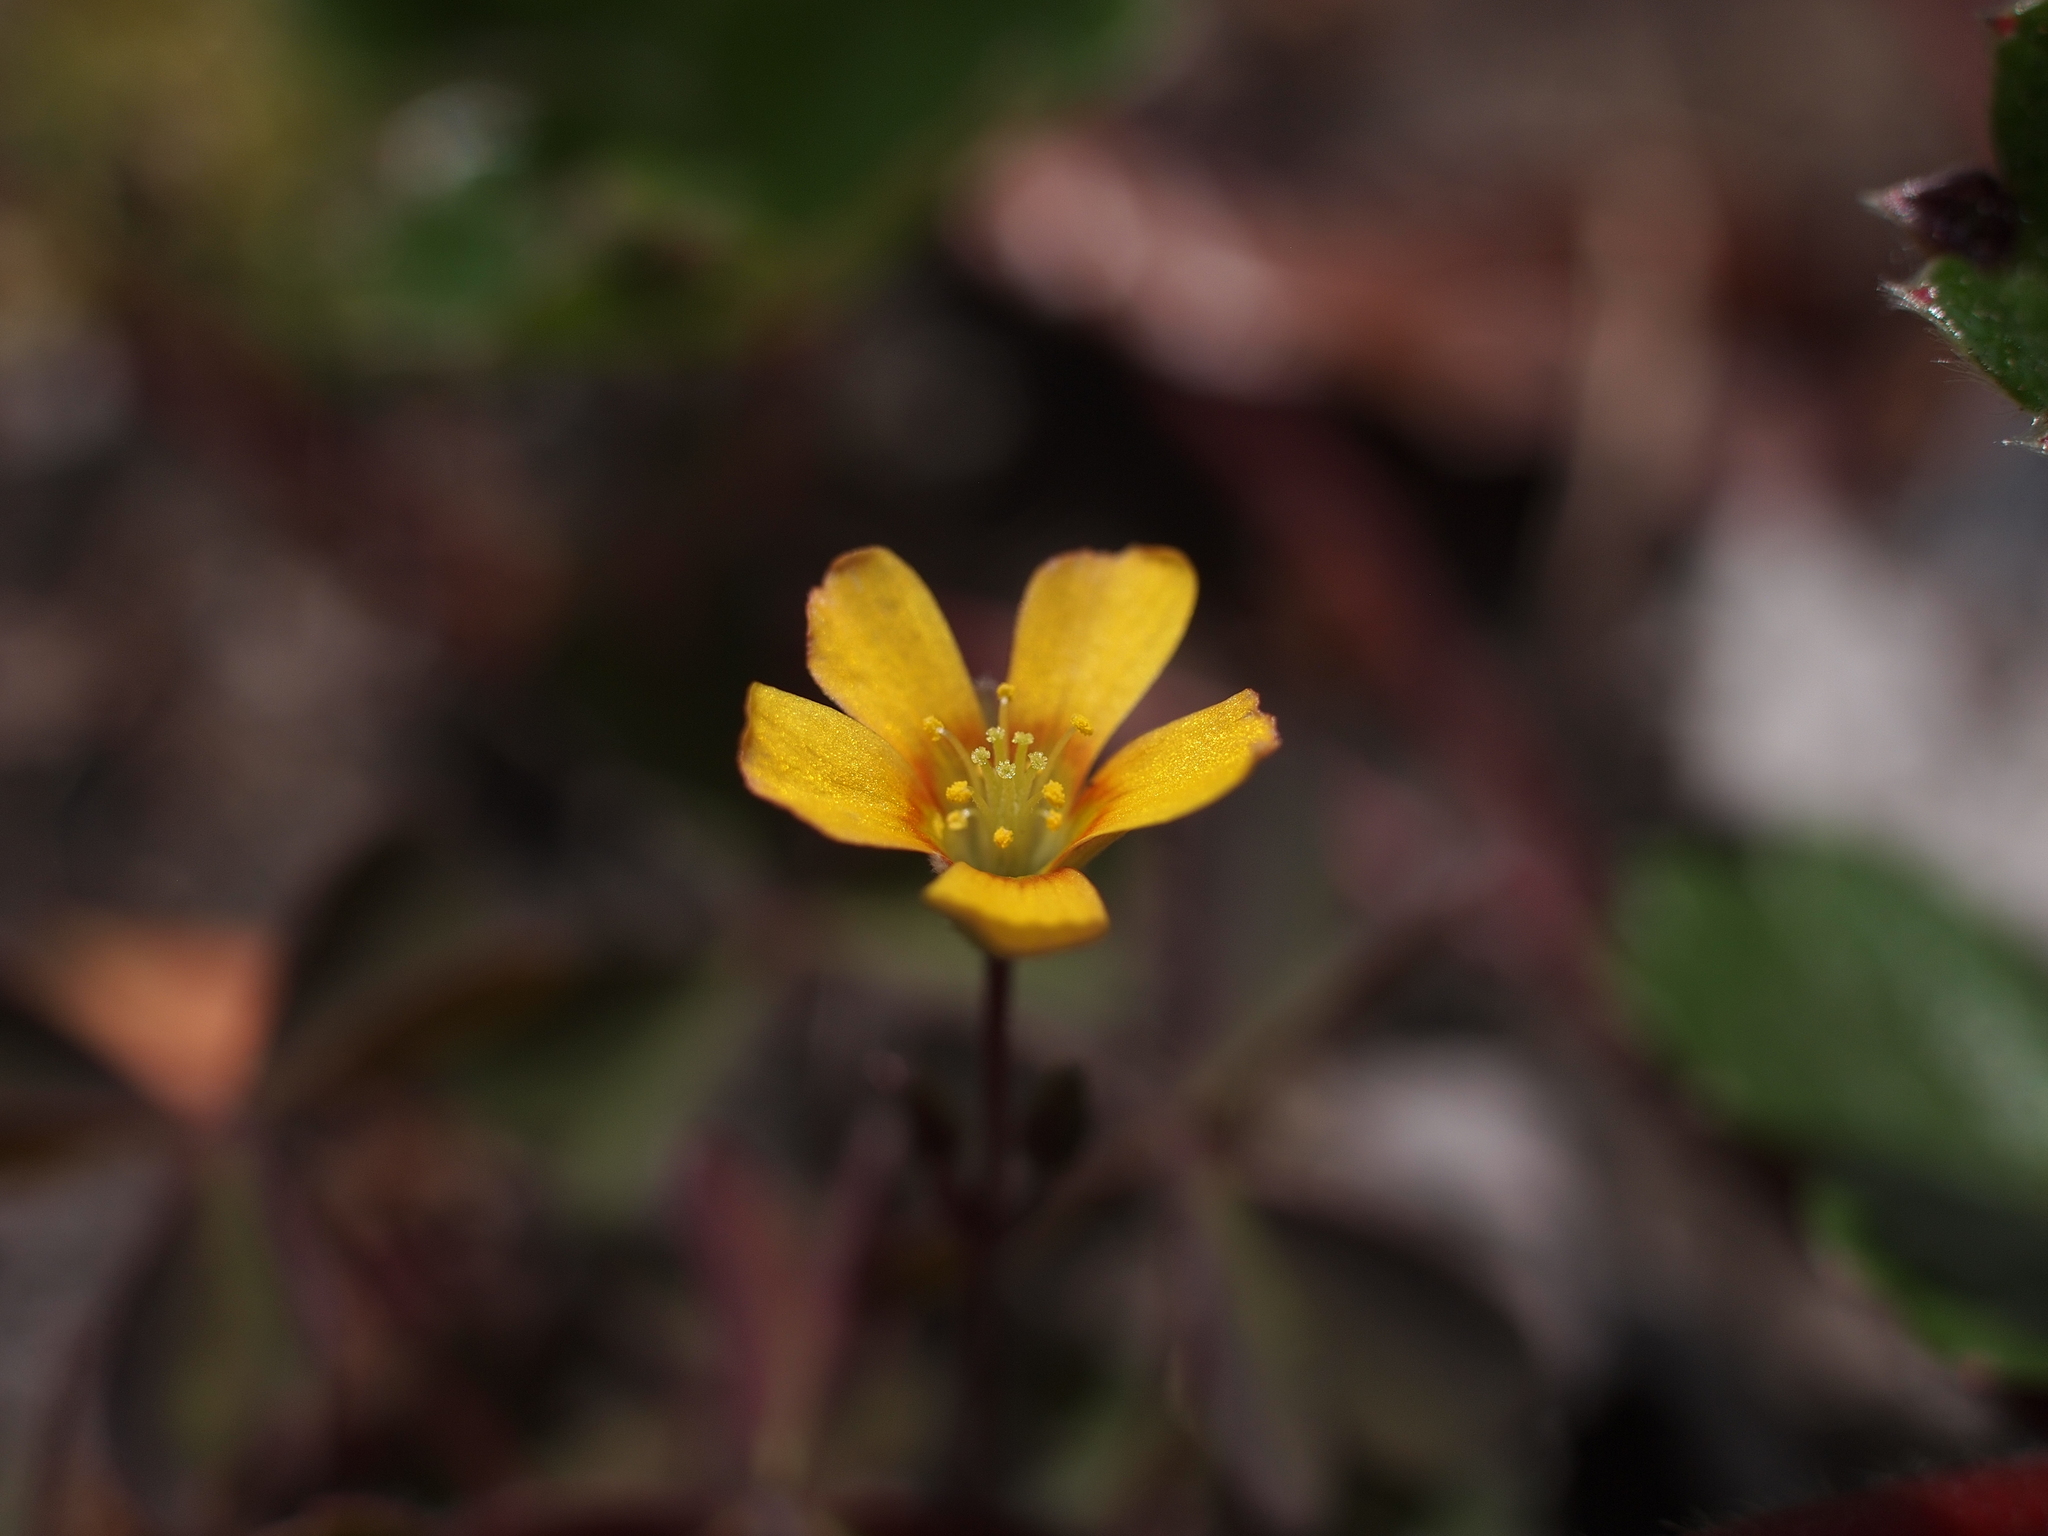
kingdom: Plantae
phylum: Tracheophyta
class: Magnoliopsida
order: Oxalidales
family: Oxalidaceae
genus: Oxalis
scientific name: Oxalis corniculata
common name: Procumbent yellow-sorrel
